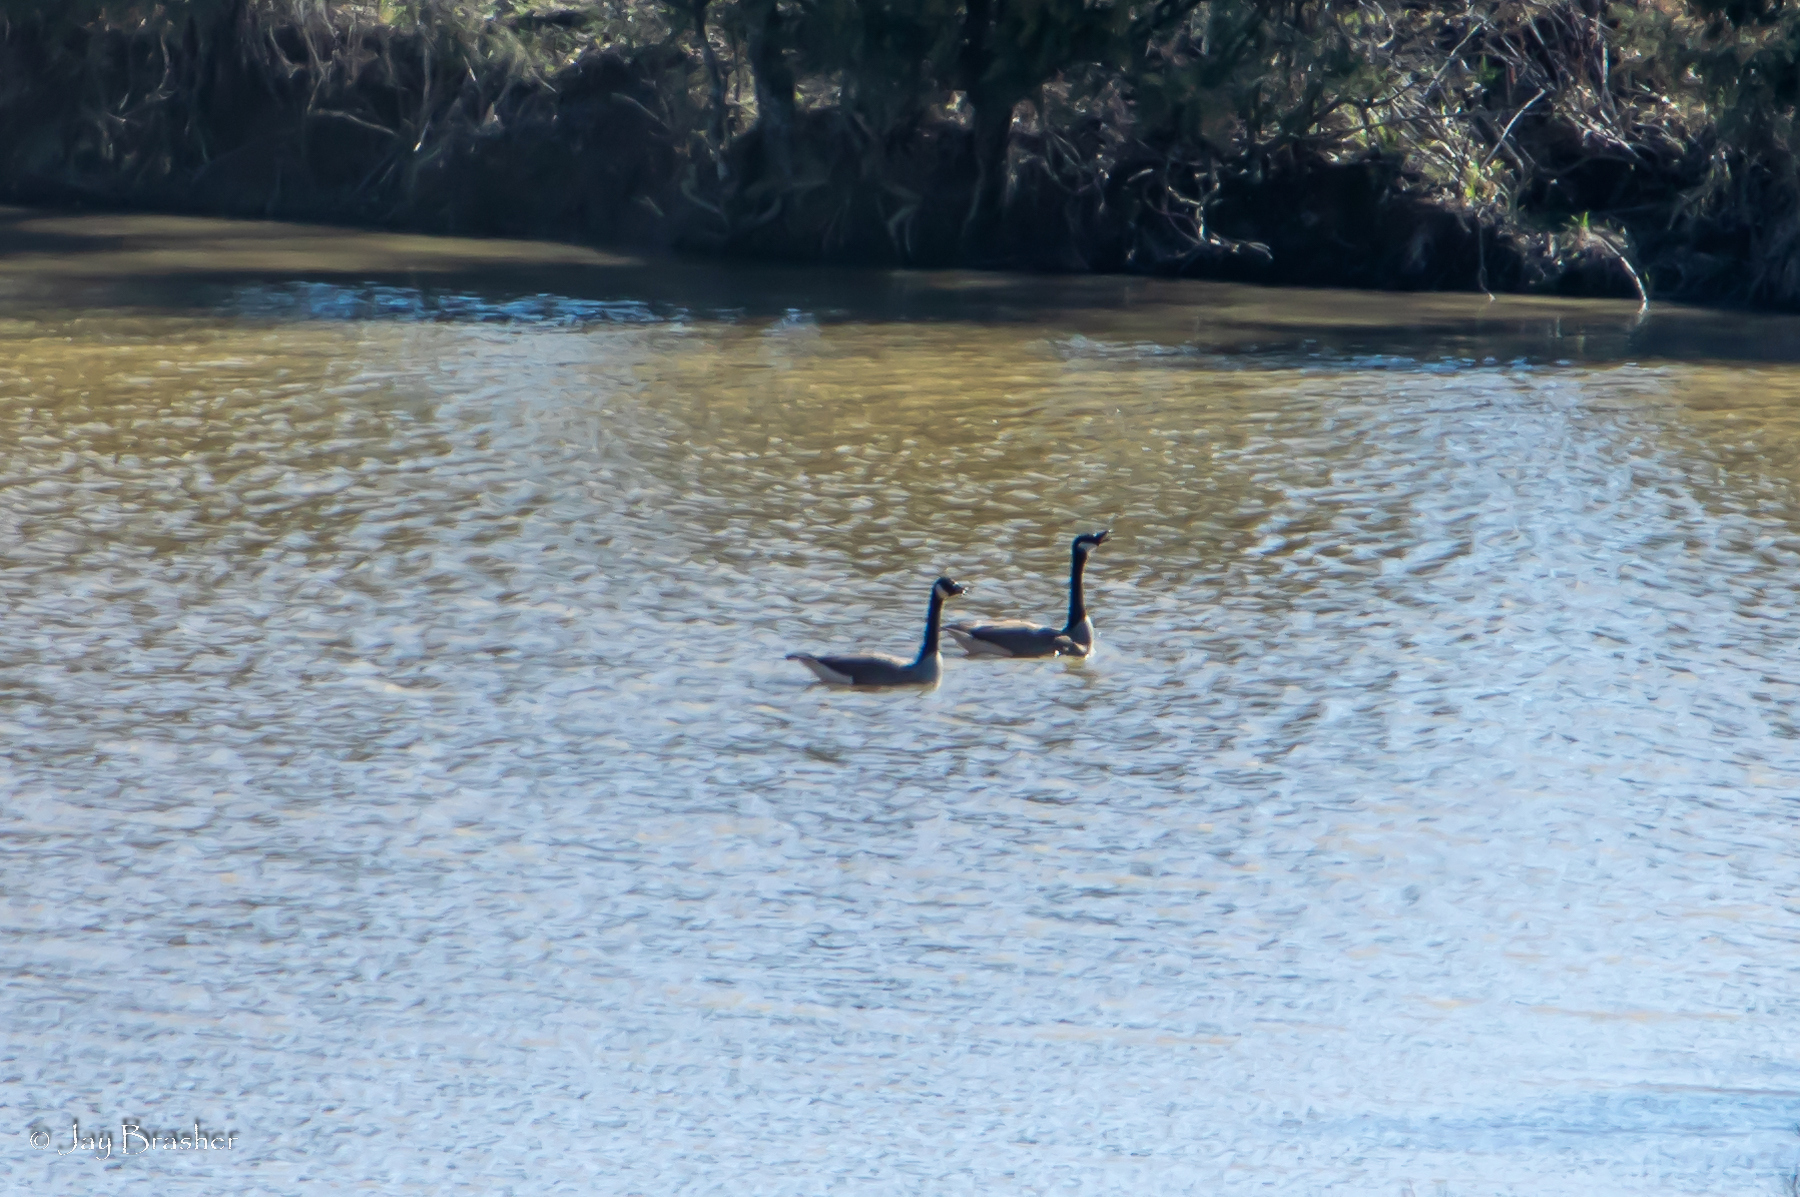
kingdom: Animalia
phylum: Chordata
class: Aves
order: Anseriformes
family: Anatidae
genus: Branta
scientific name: Branta canadensis
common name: Canada goose
